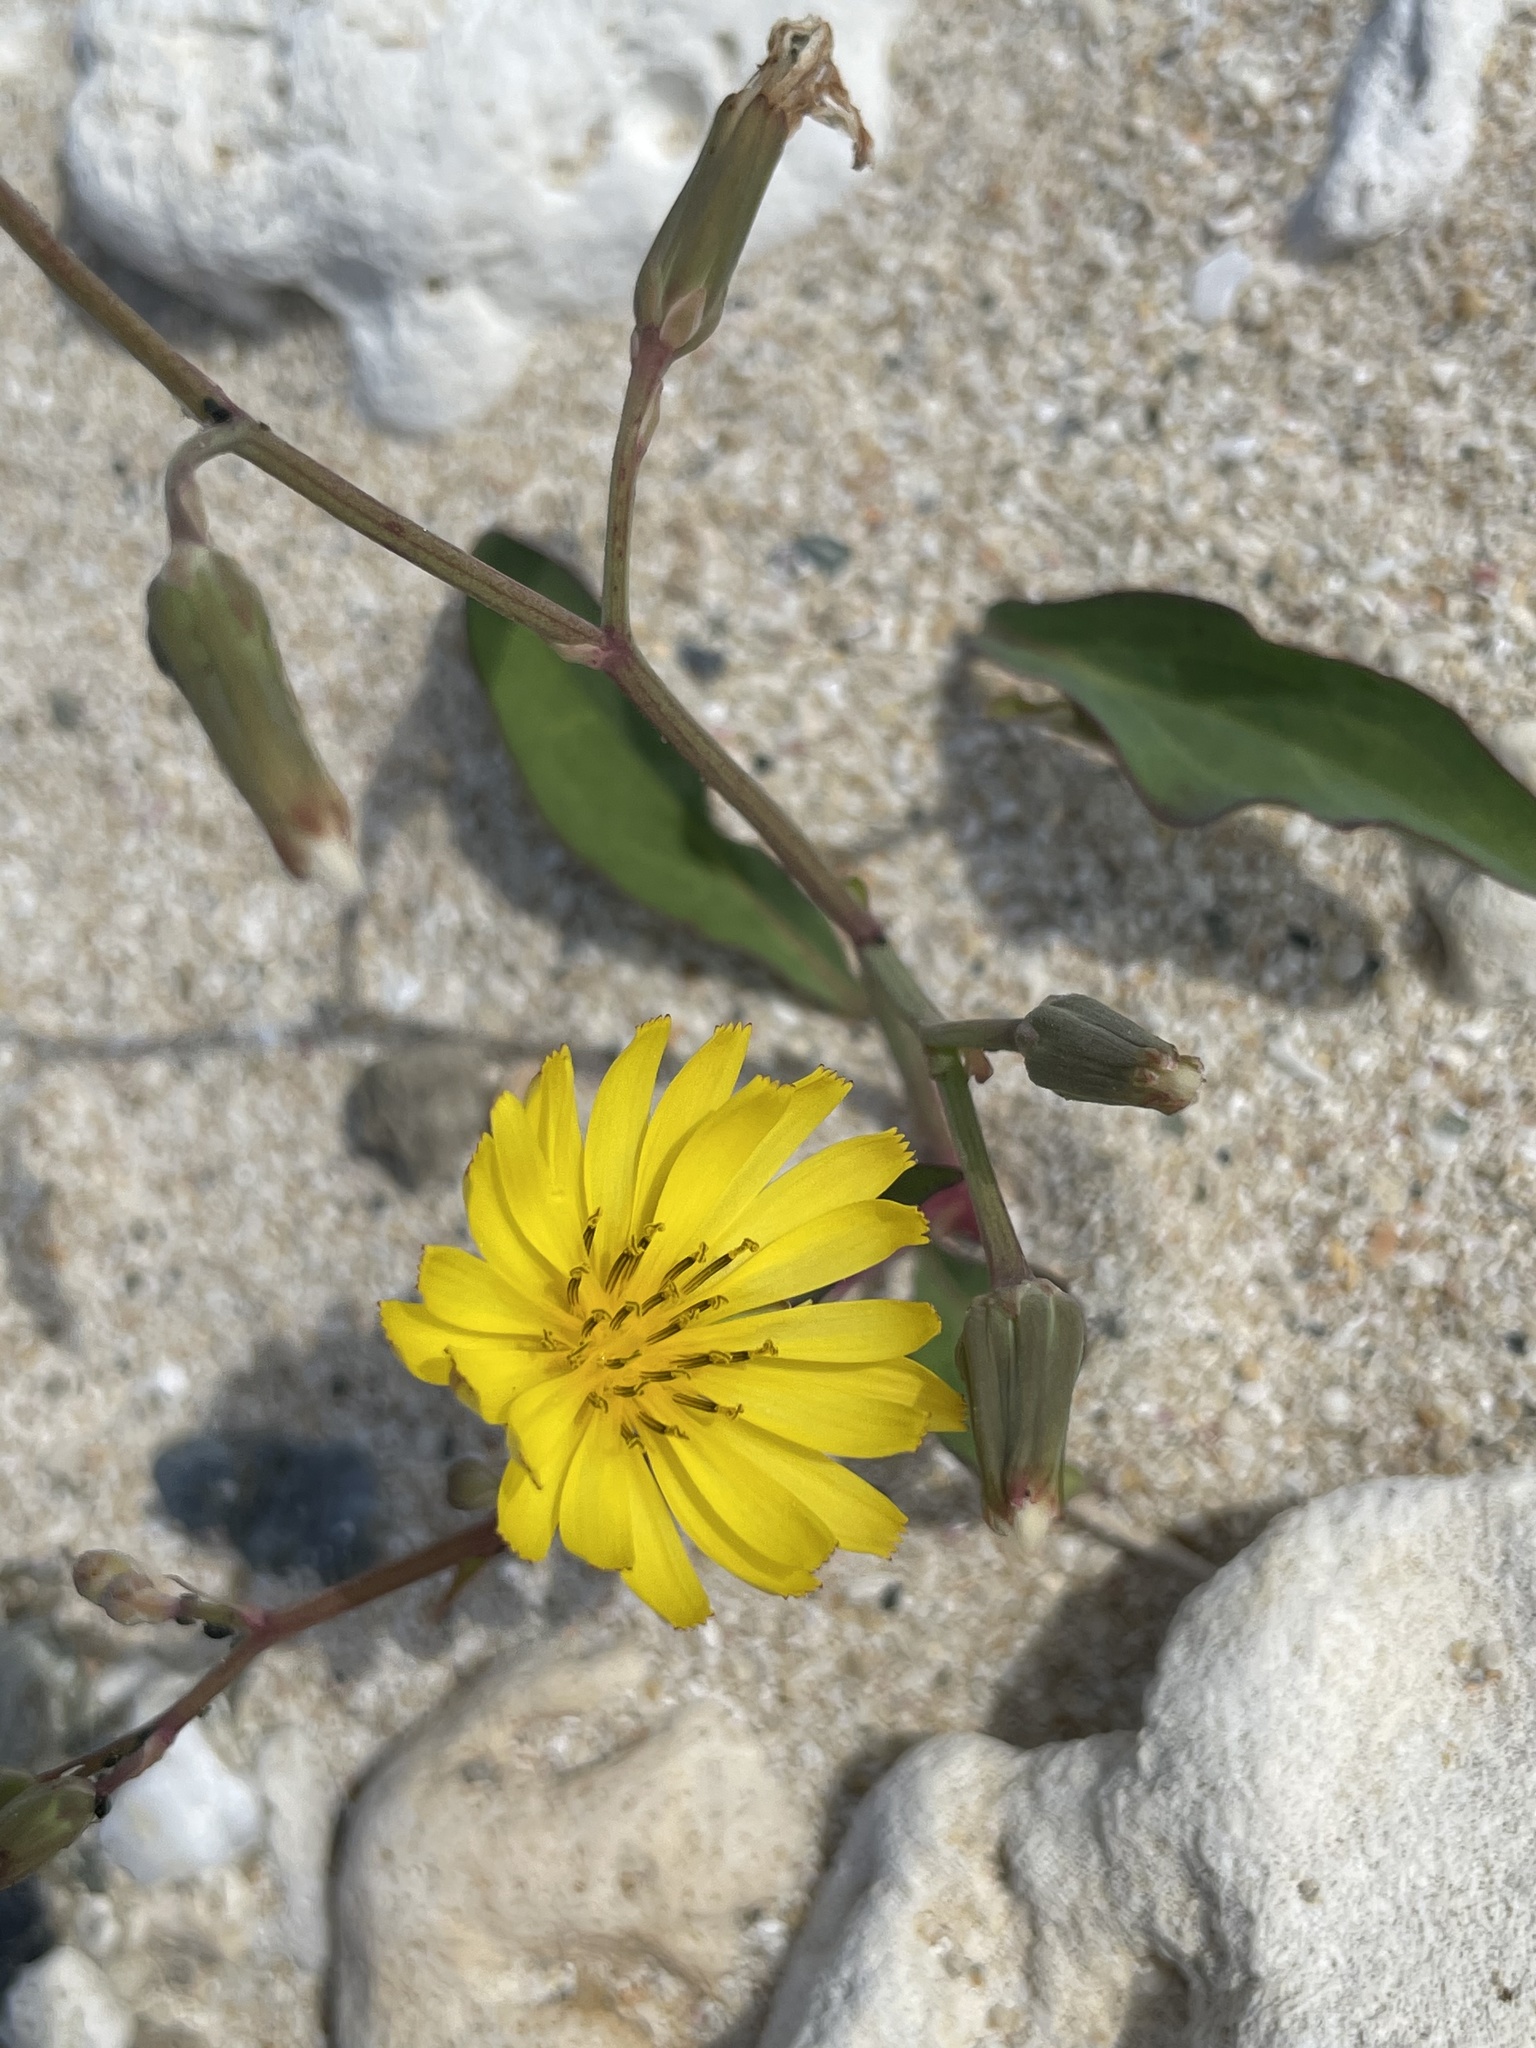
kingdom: Plantae
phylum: Tracheophyta
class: Magnoliopsida
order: Asterales
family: Asteraceae
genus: Ixeris
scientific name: Ixeris japonica
